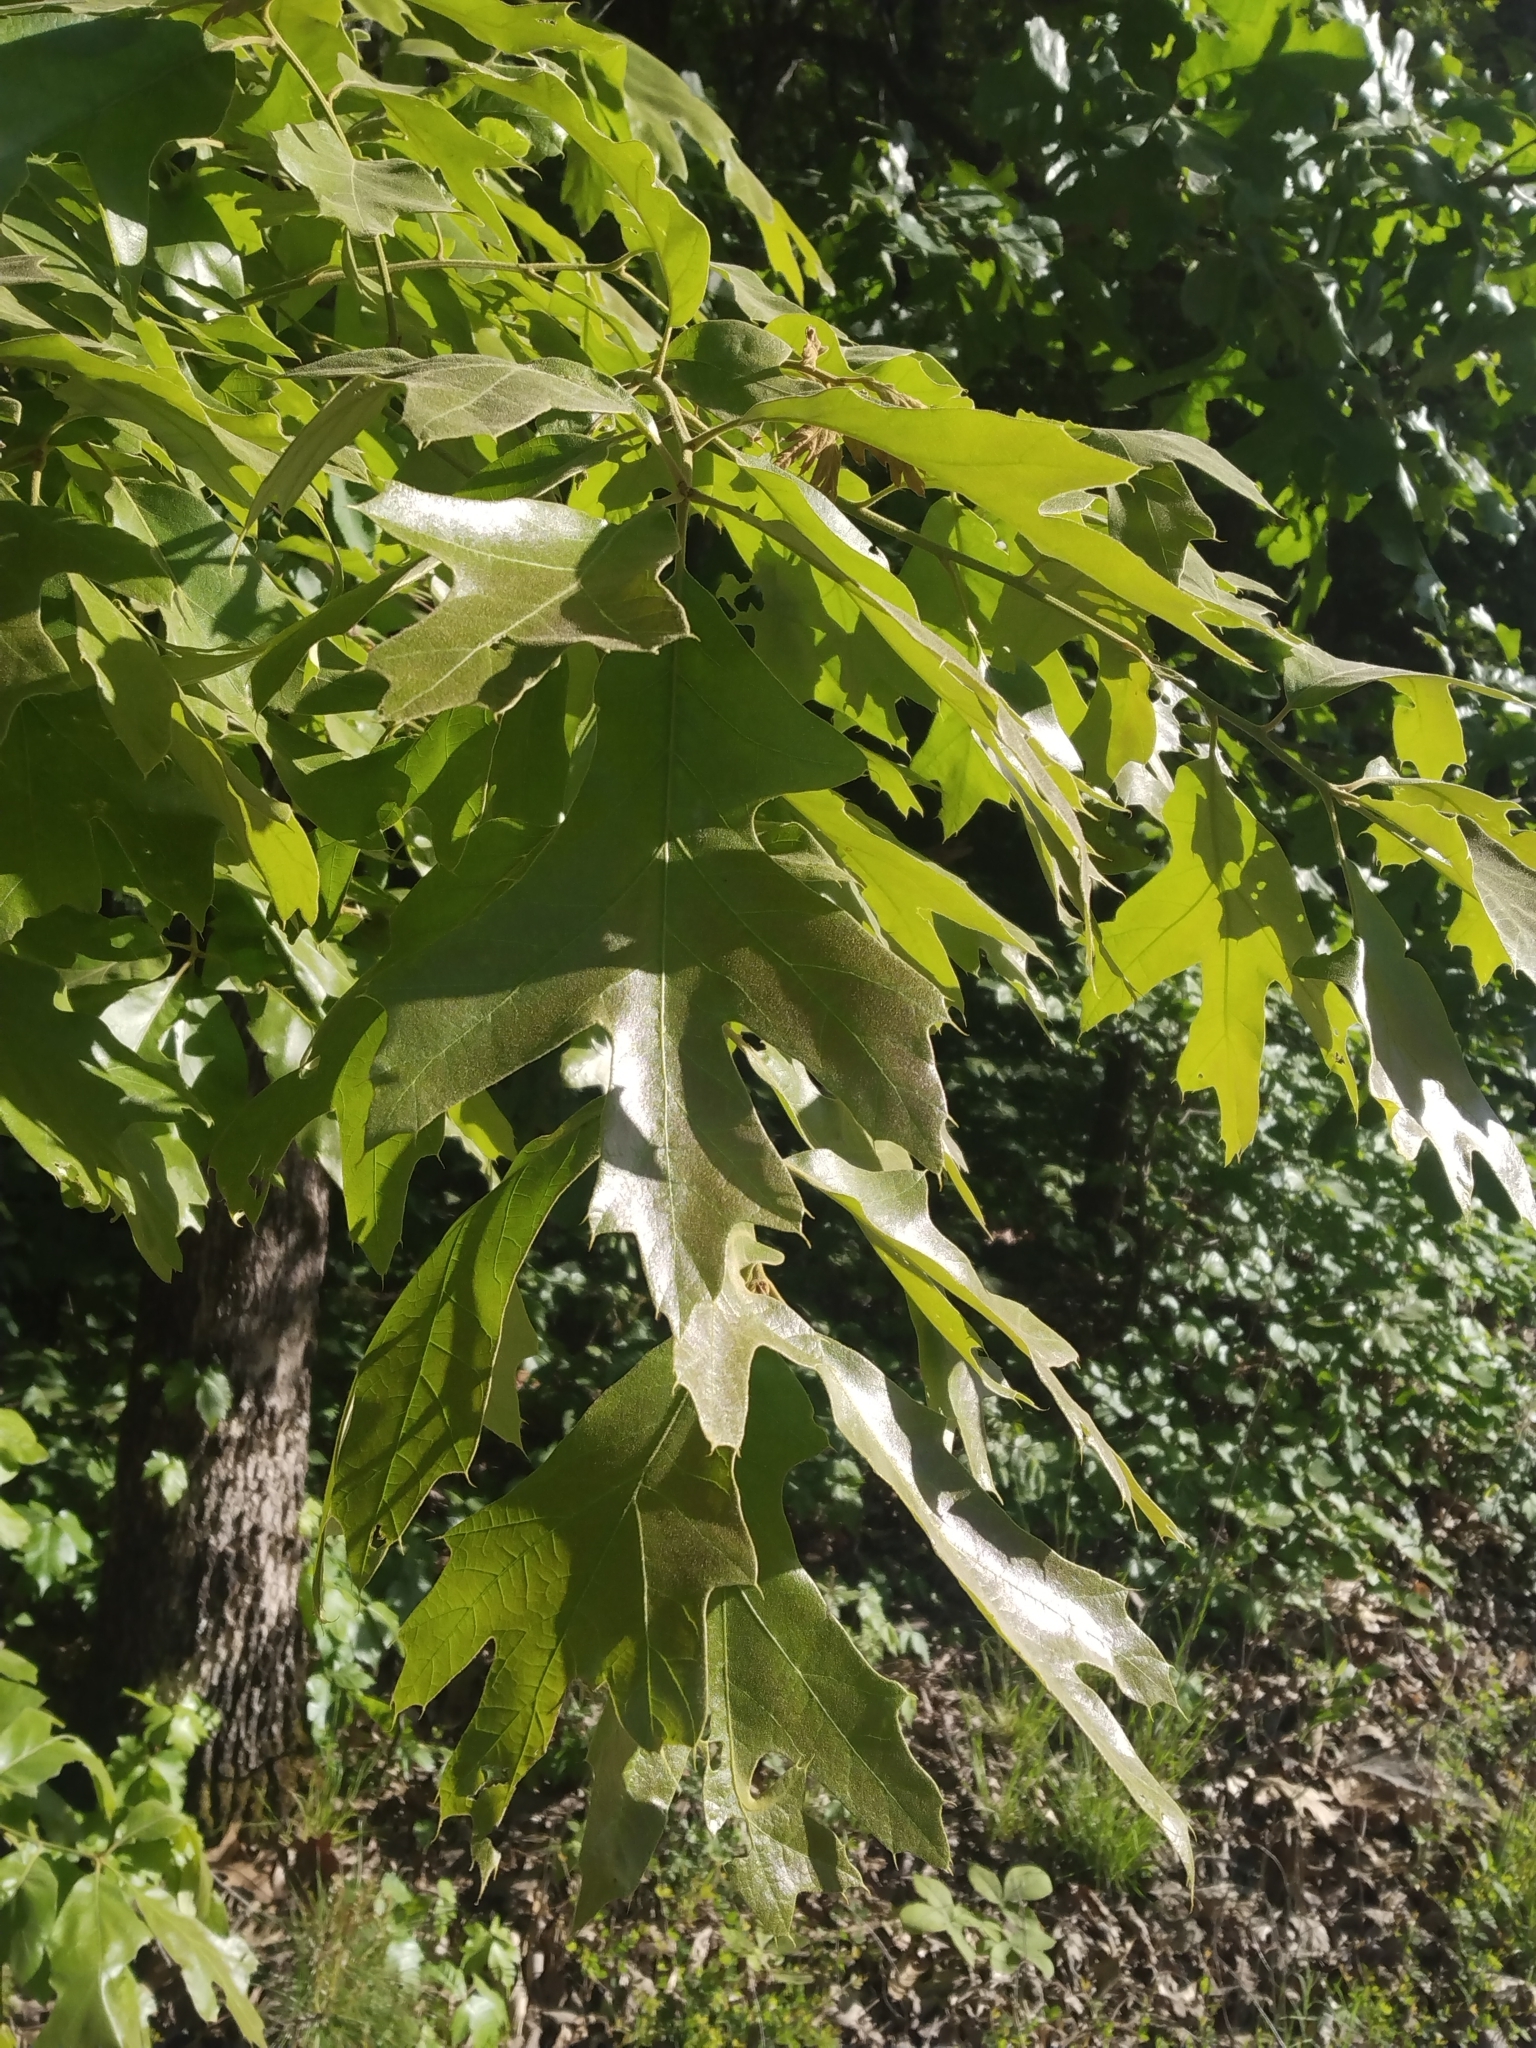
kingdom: Plantae
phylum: Tracheophyta
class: Magnoliopsida
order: Fagales
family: Fagaceae
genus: Quercus
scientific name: Quercus falcata
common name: Southern red oak
